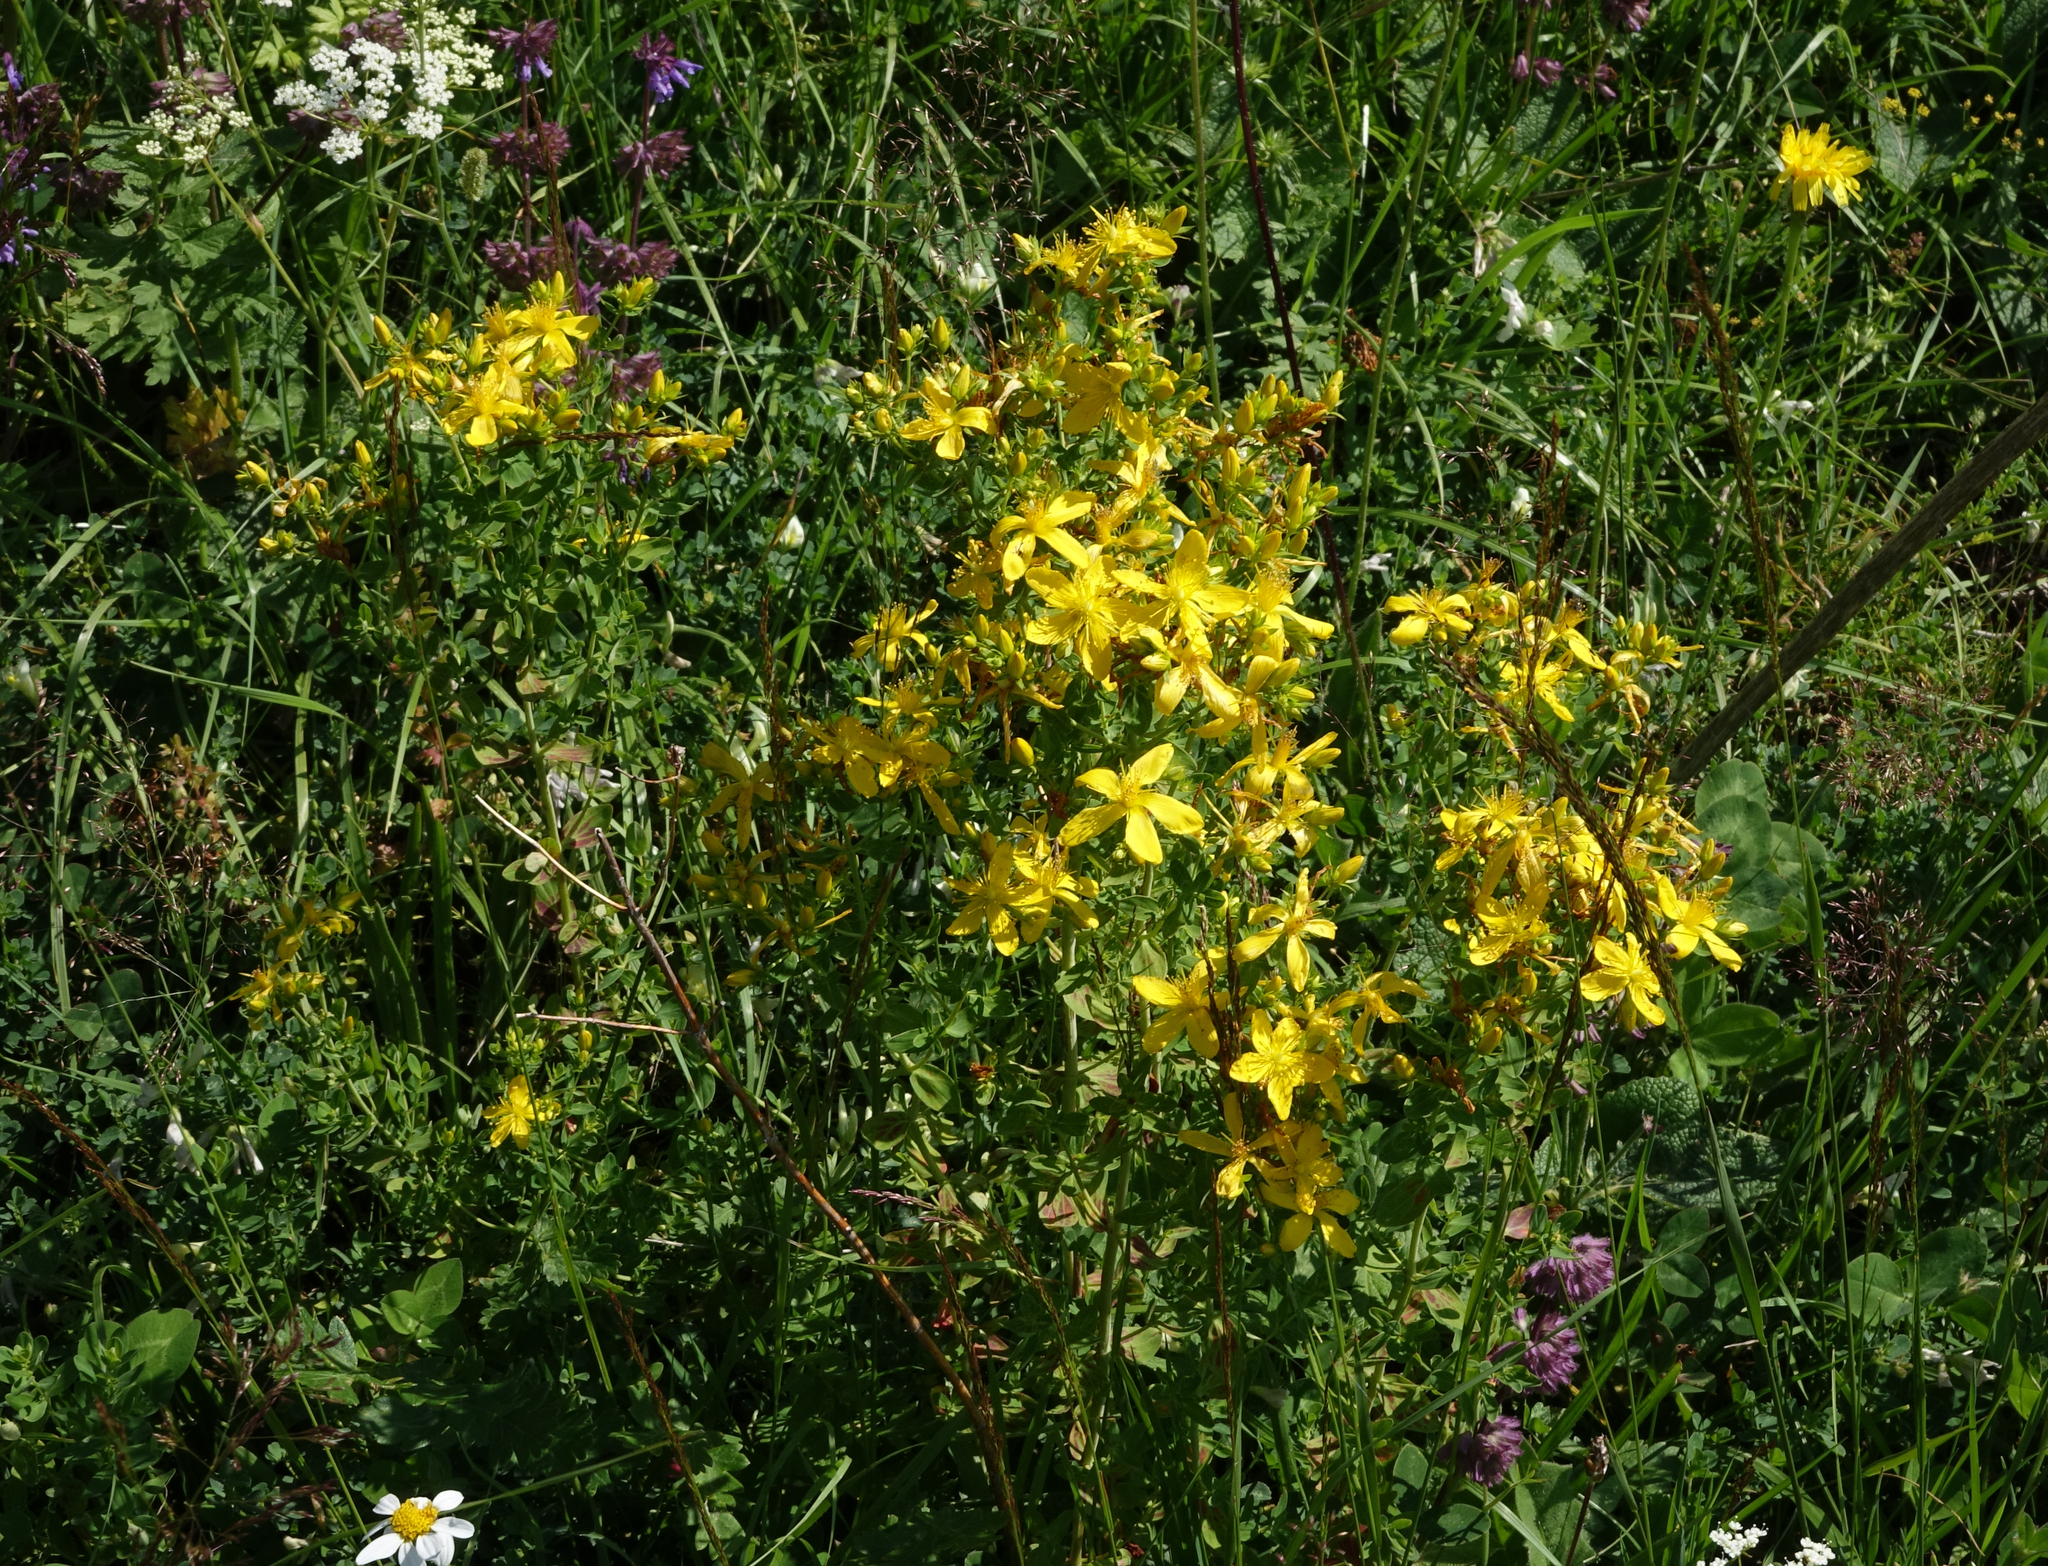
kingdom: Plantae
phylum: Tracheophyta
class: Magnoliopsida
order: Malpighiales
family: Hypericaceae
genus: Hypericum
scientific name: Hypericum perforatum
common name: Common st. johnswort
